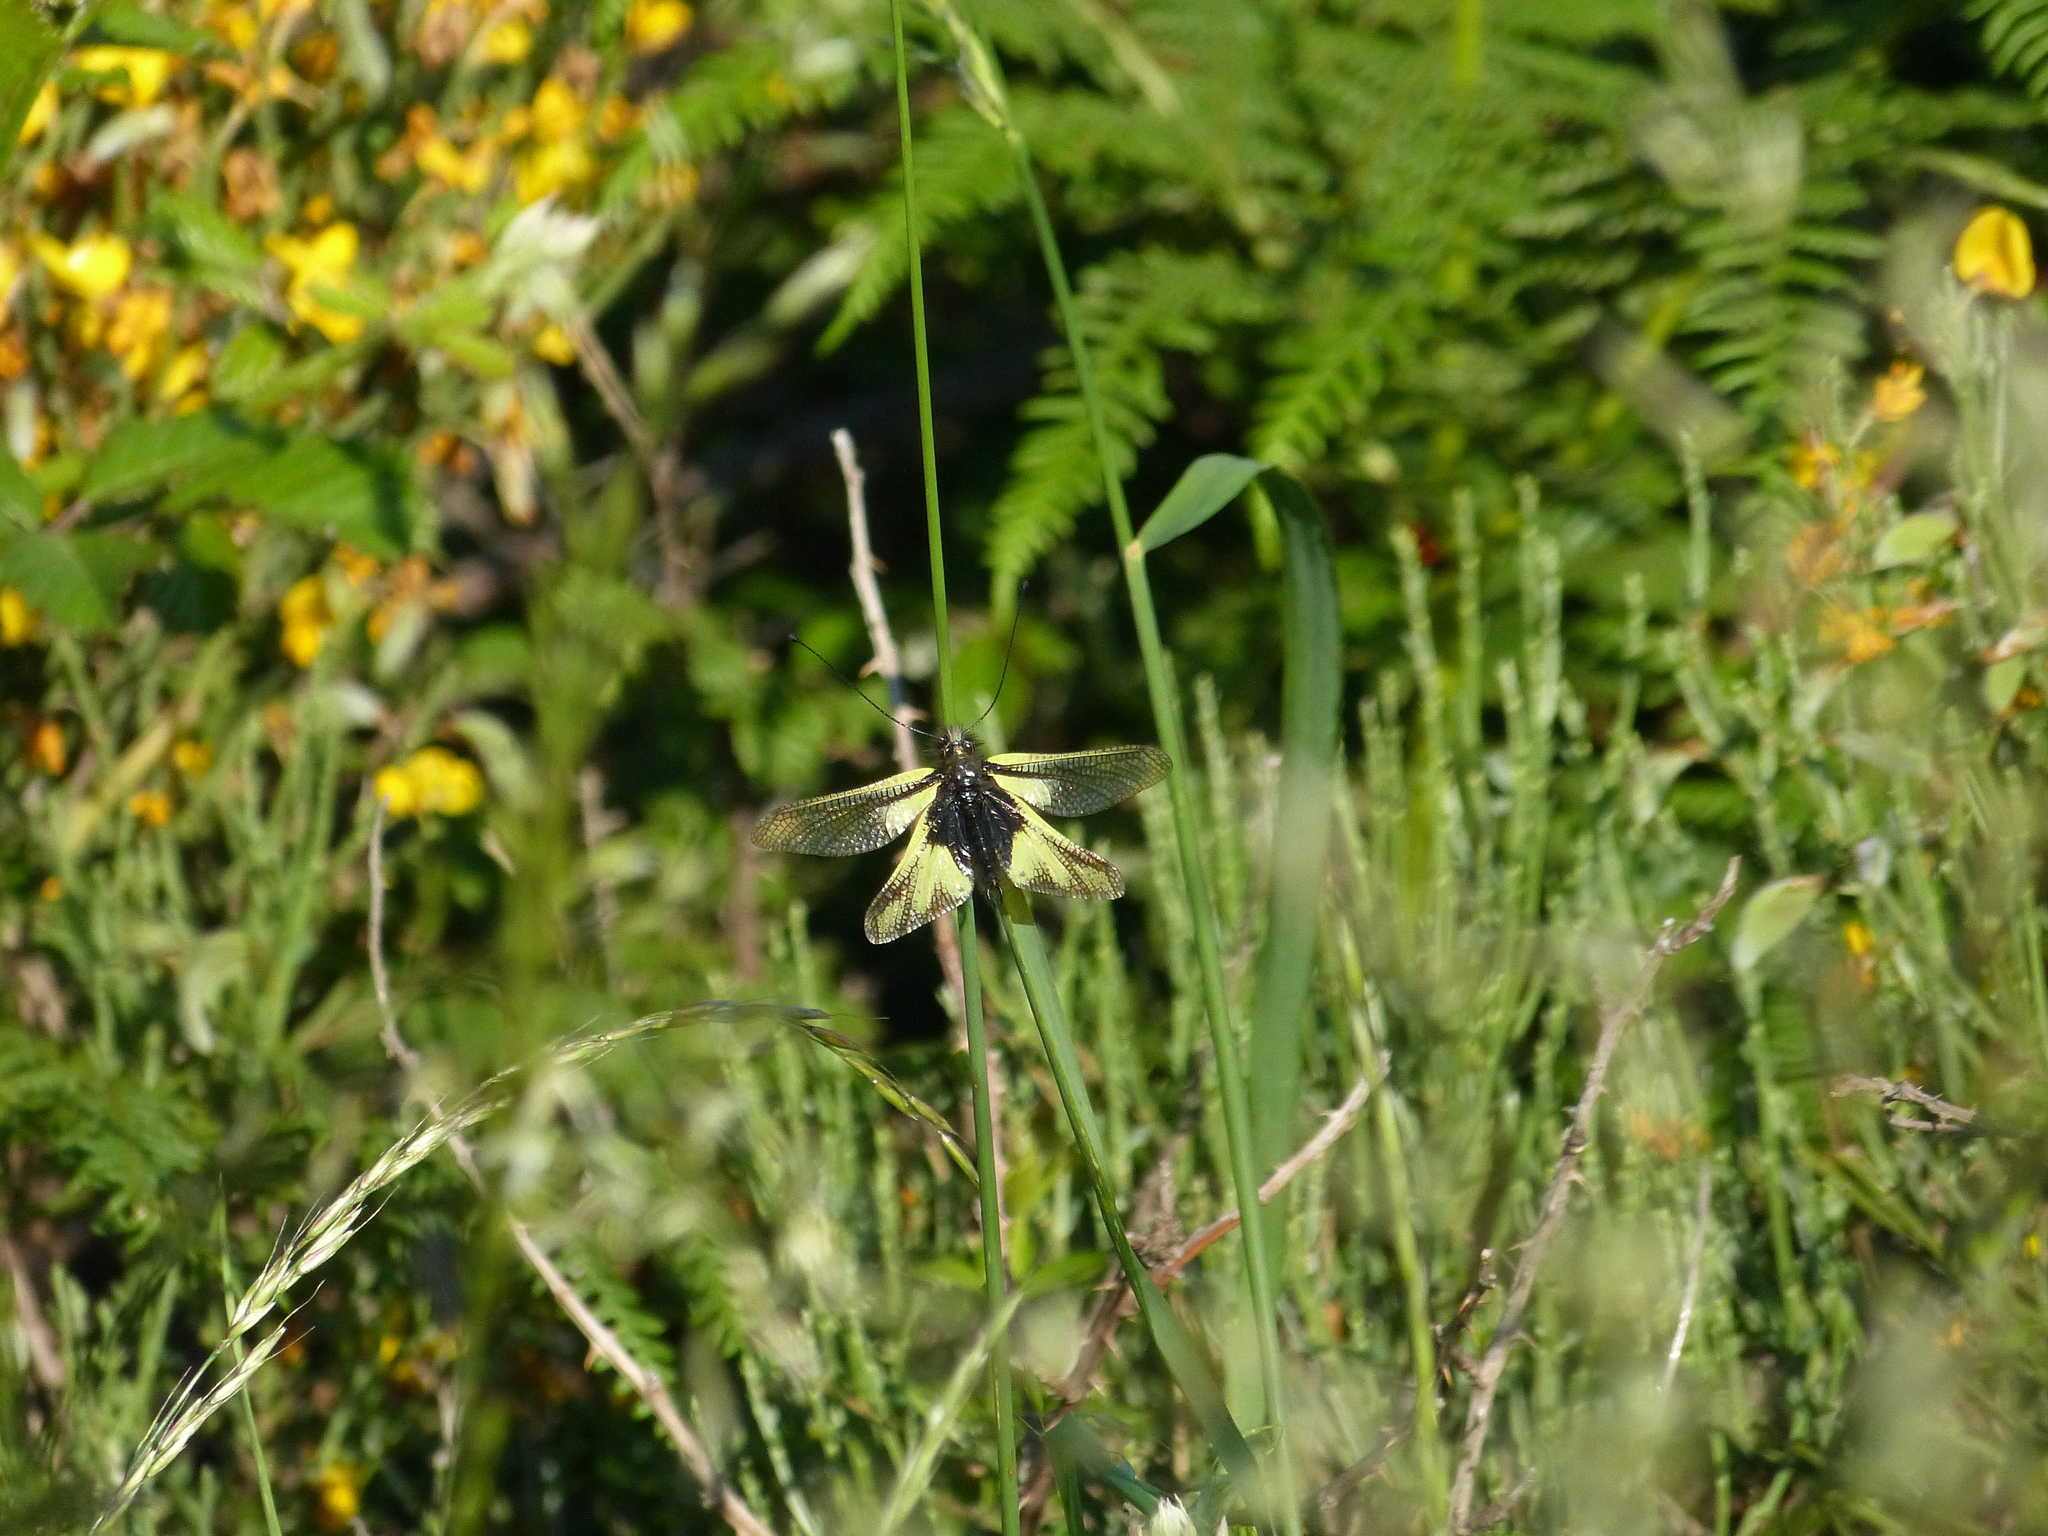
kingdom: Animalia
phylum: Arthropoda
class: Insecta
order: Neuroptera
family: Ascalaphidae
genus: Libelloides
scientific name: Libelloides coccajus
